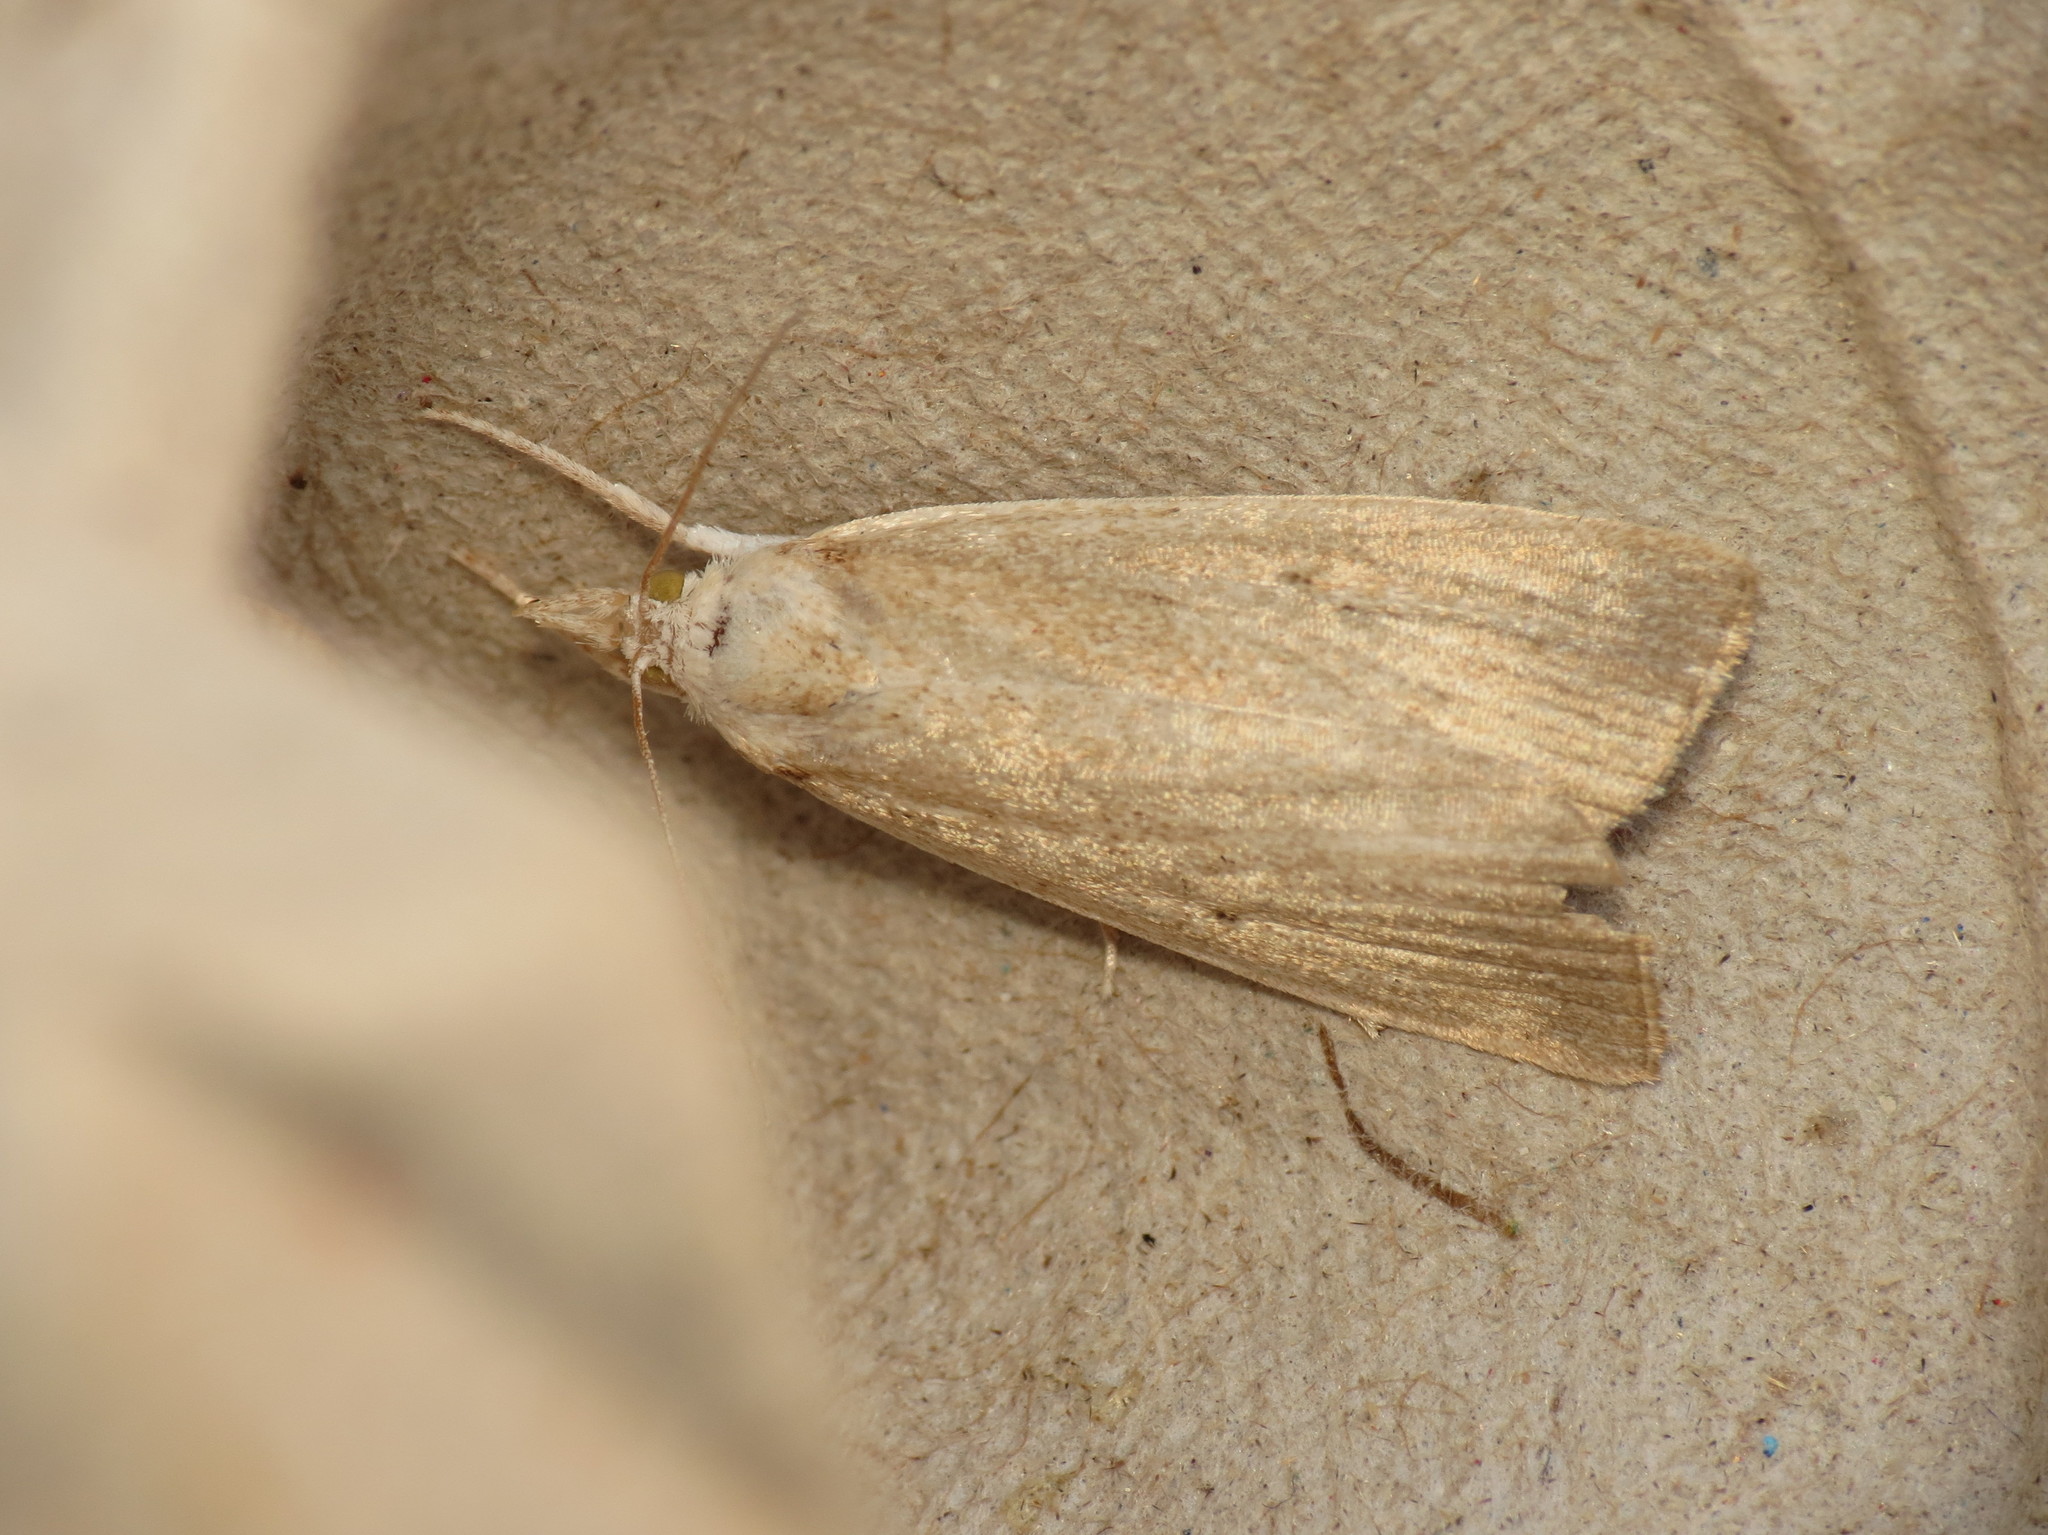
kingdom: Animalia
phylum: Arthropoda
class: Insecta
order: Lepidoptera
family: Crambidae
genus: Calamotropha
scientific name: Calamotropha paludella
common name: Bulrush veneer
